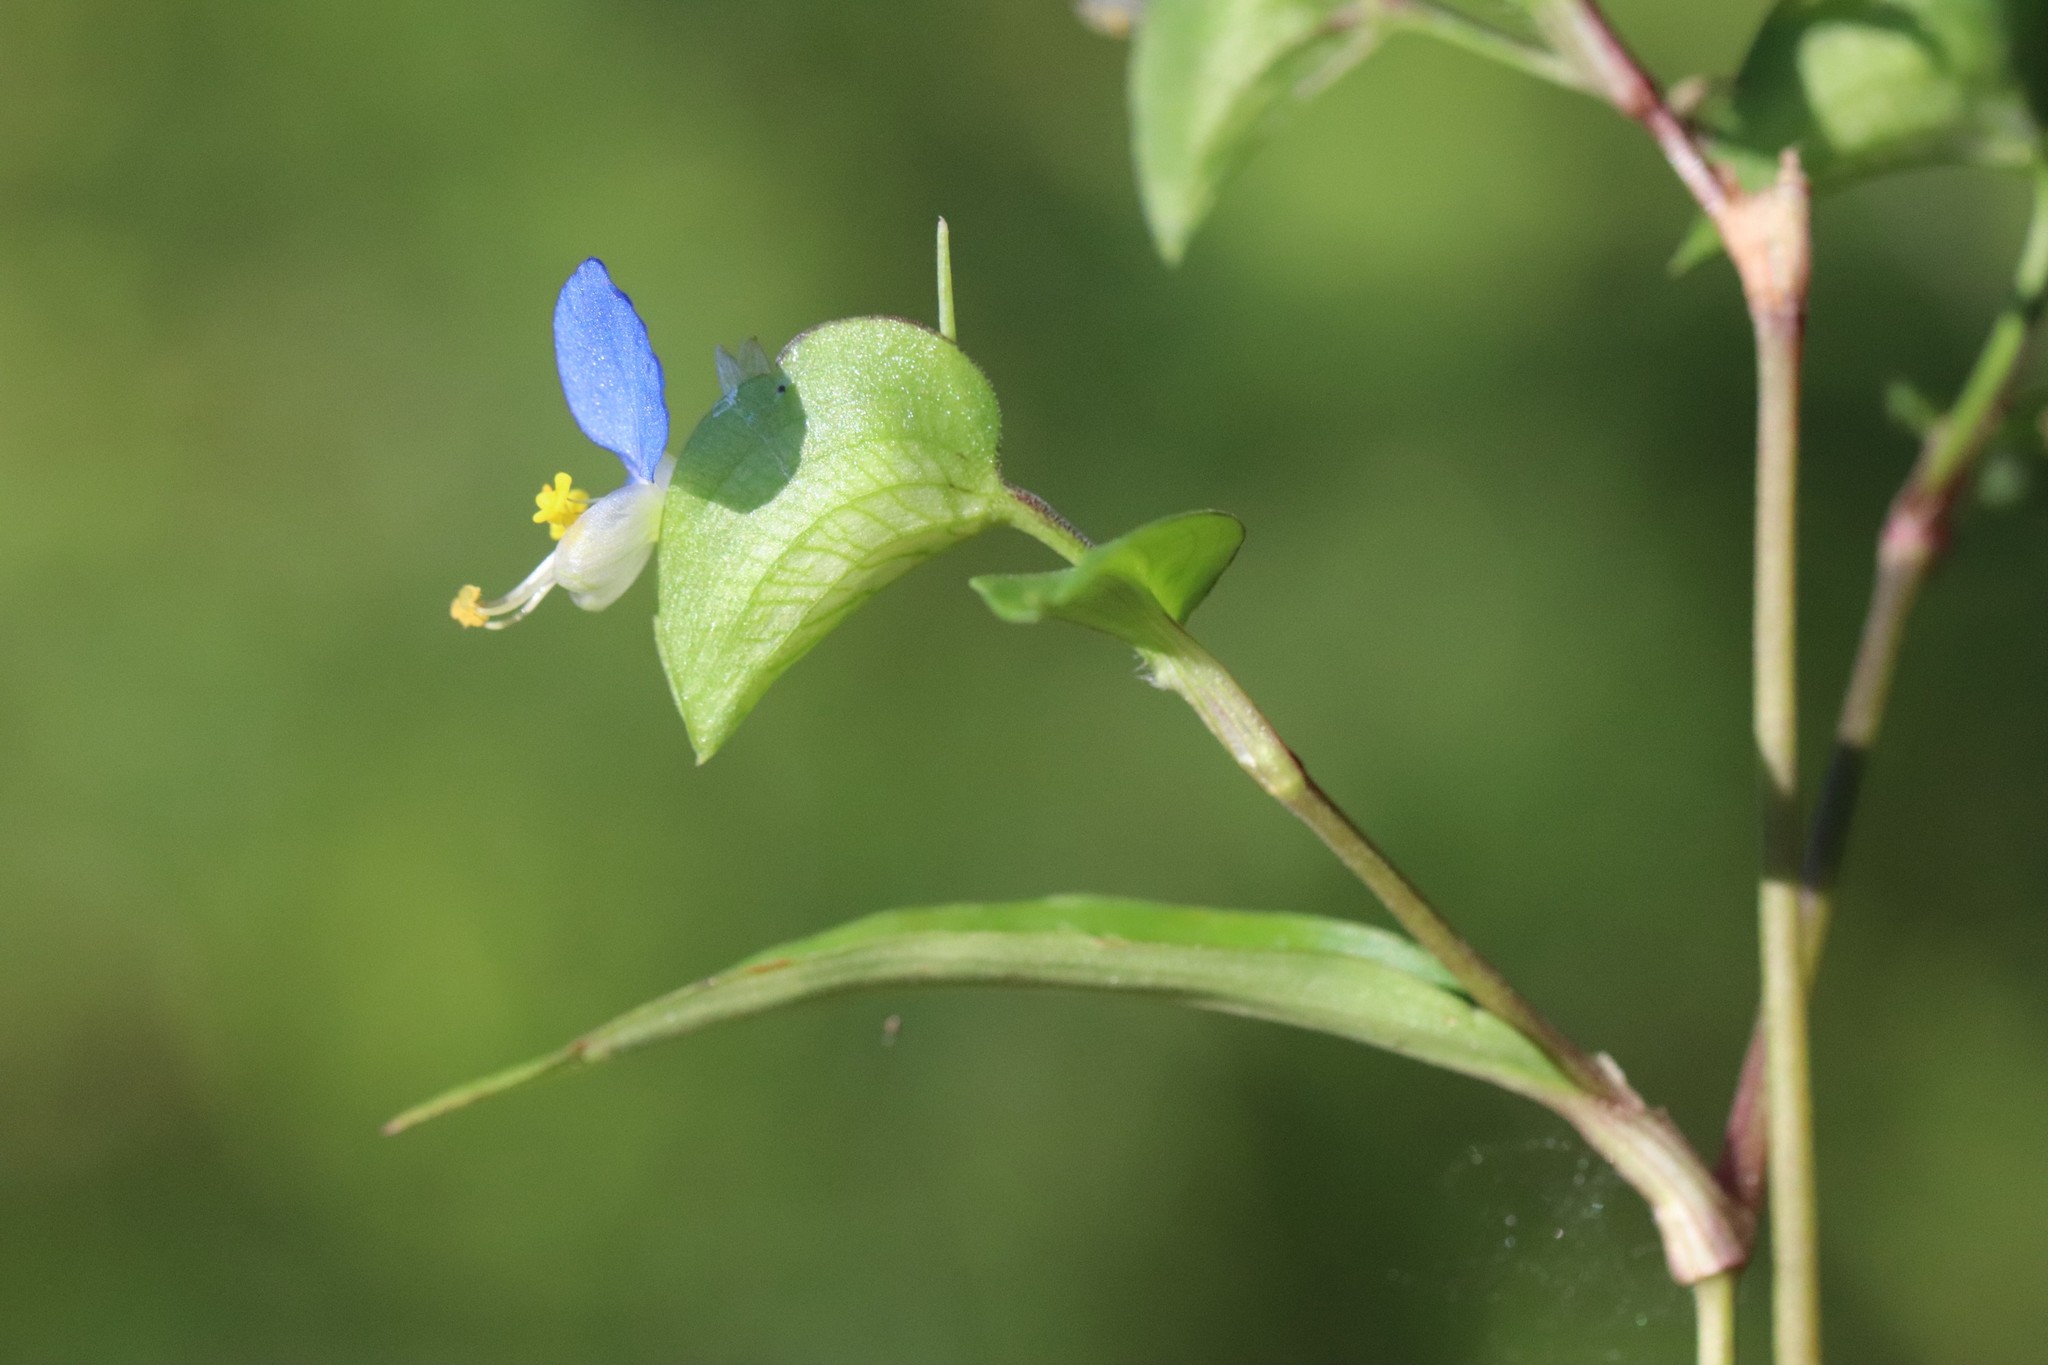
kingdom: Plantae
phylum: Tracheophyta
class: Liliopsida
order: Commelinales
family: Commelinaceae
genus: Commelina
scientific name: Commelina communis
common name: Asiatic dayflower
